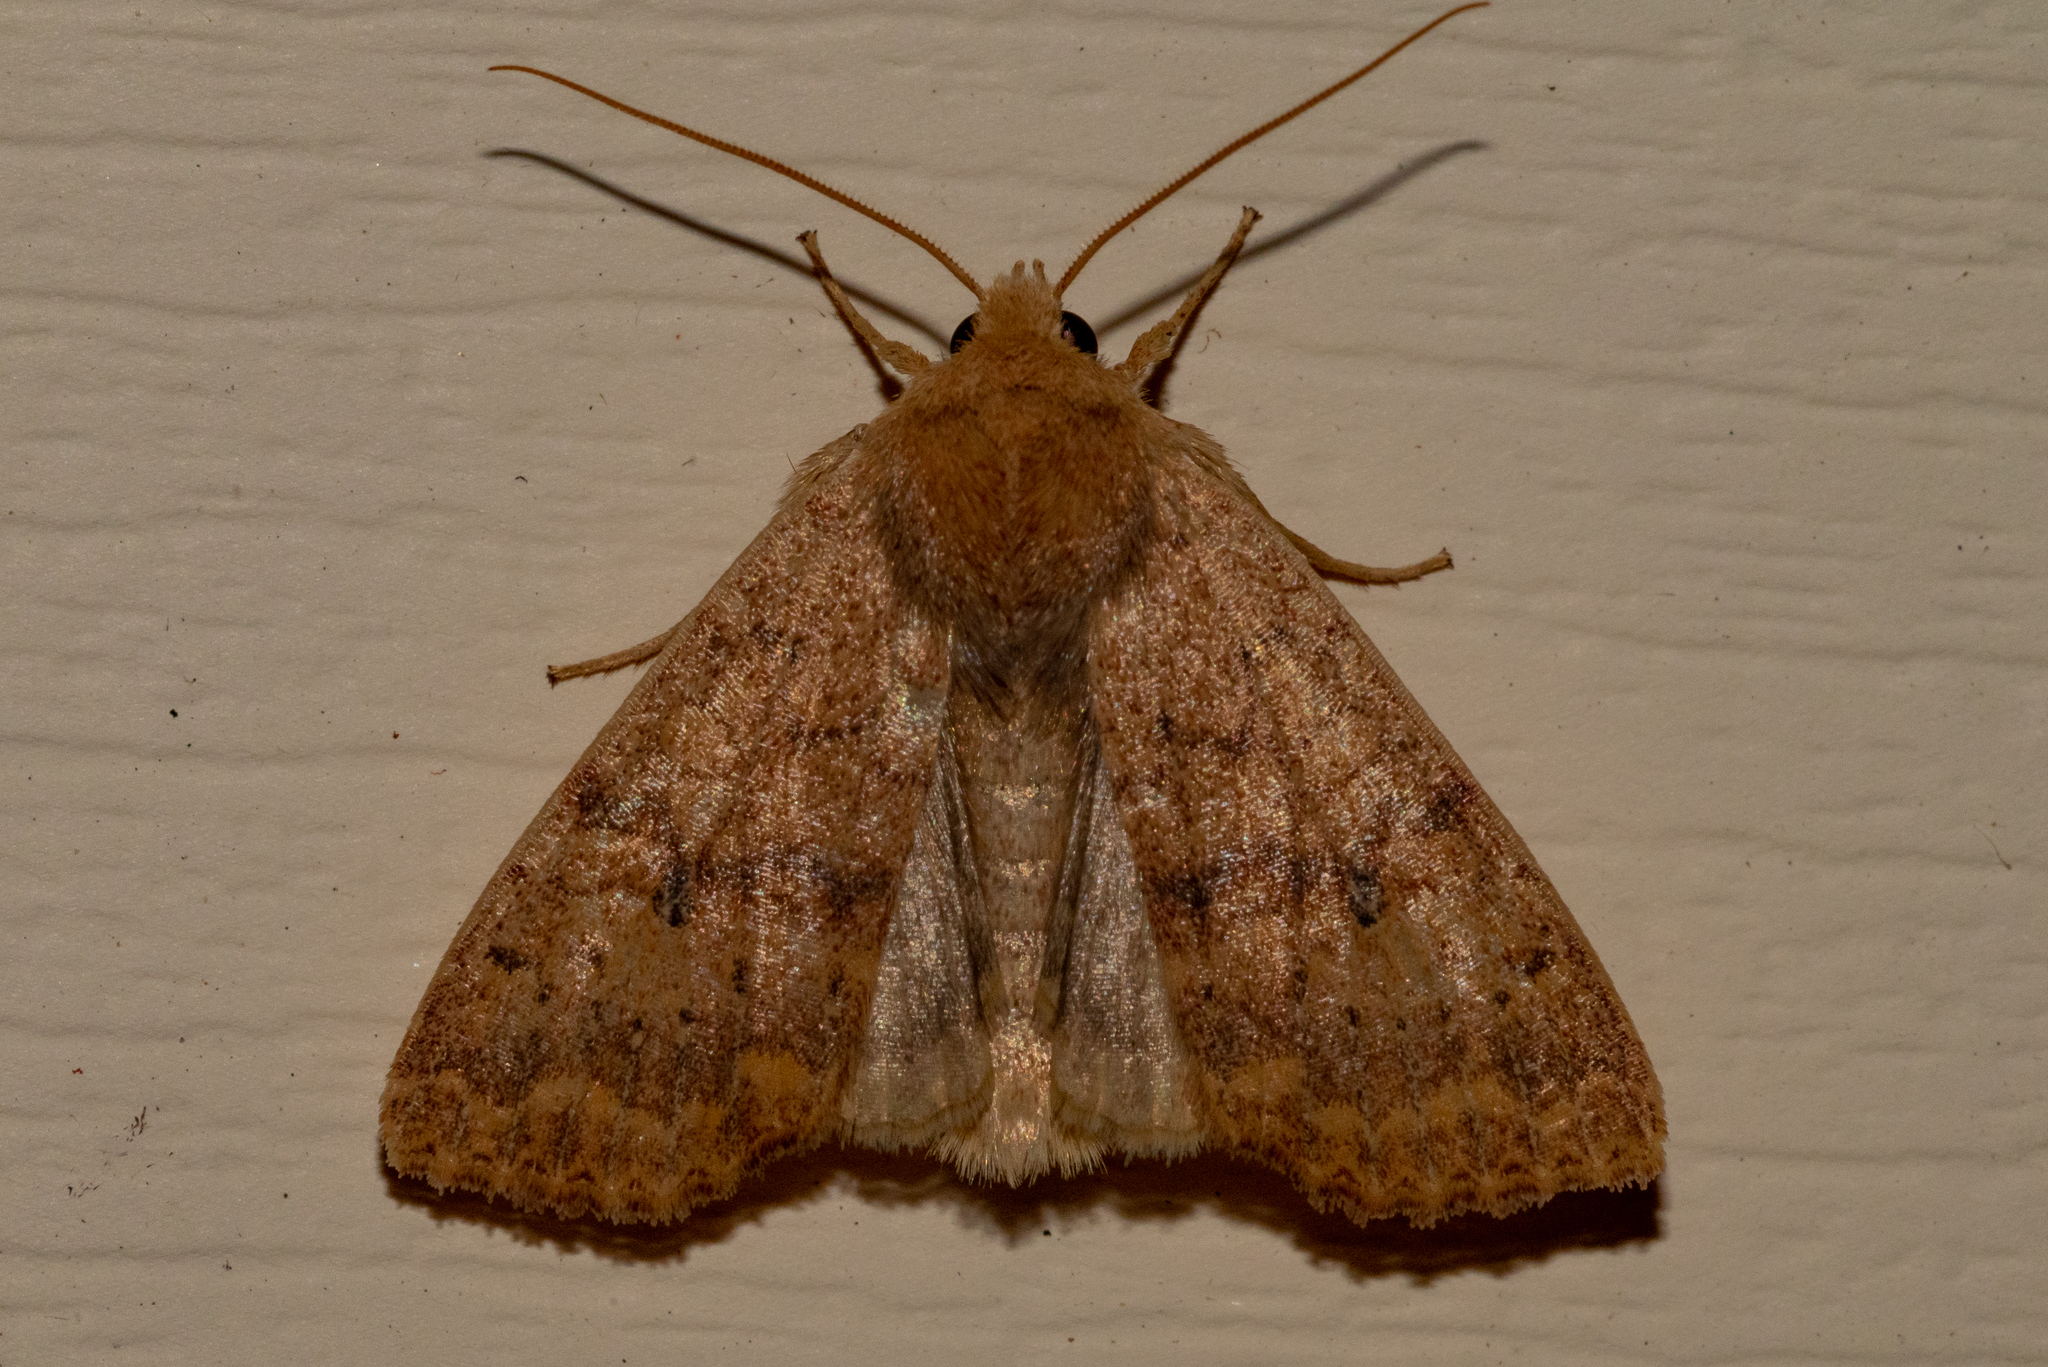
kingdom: Animalia
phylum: Arthropoda
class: Insecta
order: Lepidoptera
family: Noctuidae
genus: Agrochola
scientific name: Agrochola bicolorago
